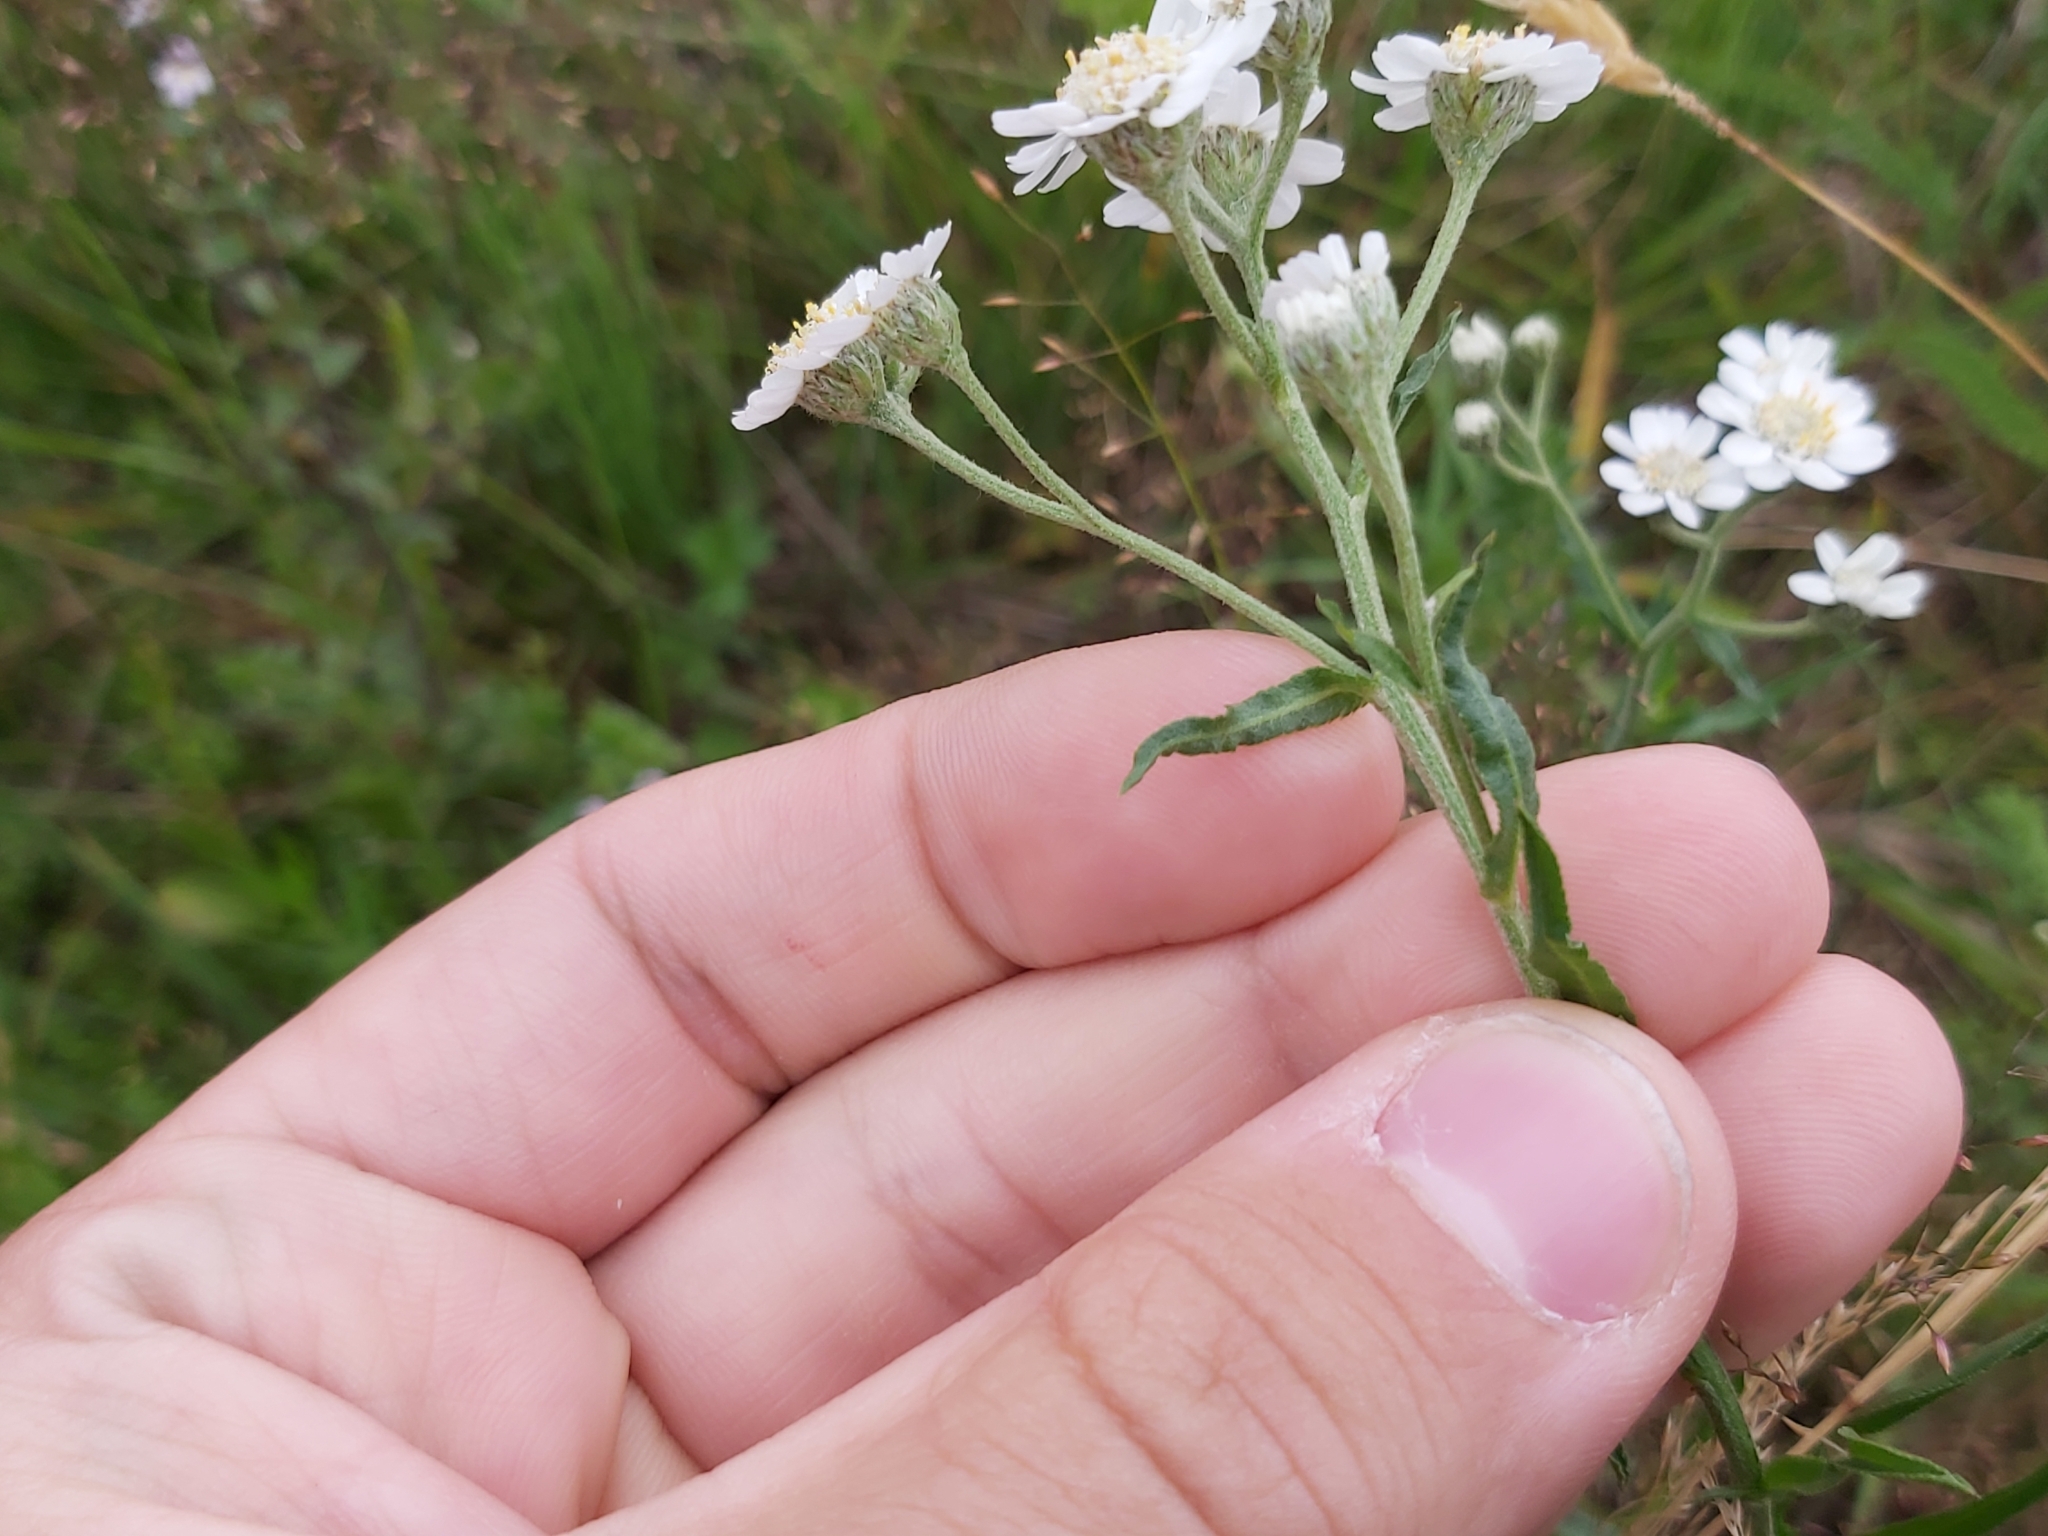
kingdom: Plantae
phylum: Tracheophyta
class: Magnoliopsida
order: Asterales
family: Asteraceae
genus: Achillea
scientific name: Achillea ptarmica
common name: Sneezeweed
